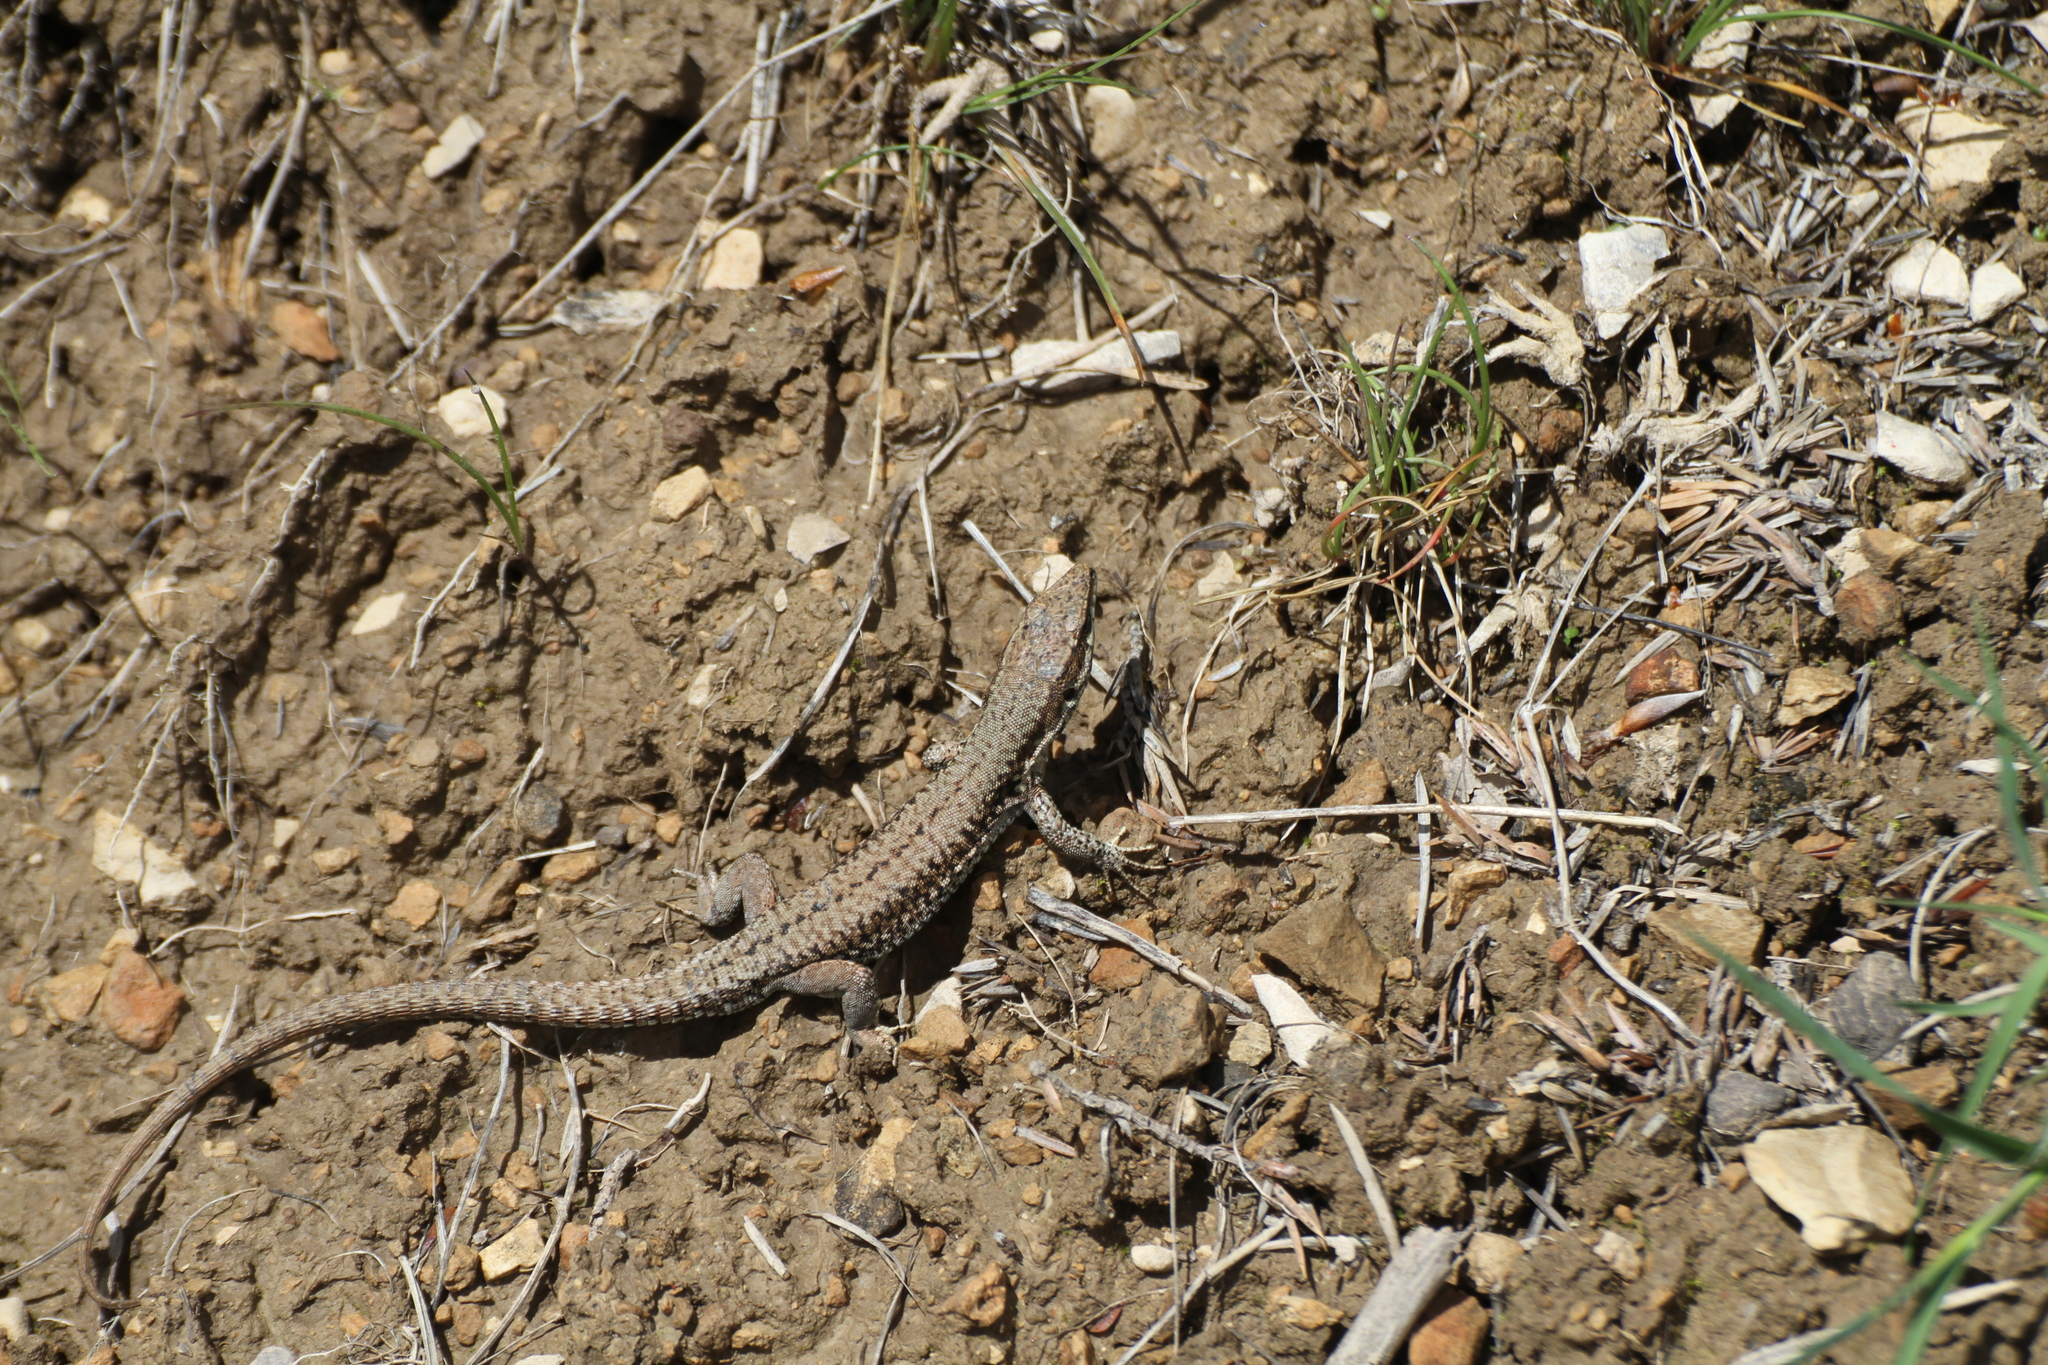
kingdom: Animalia
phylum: Chordata
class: Squamata
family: Lacertidae
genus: Podarcis
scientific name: Podarcis muralis
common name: Common wall lizard
